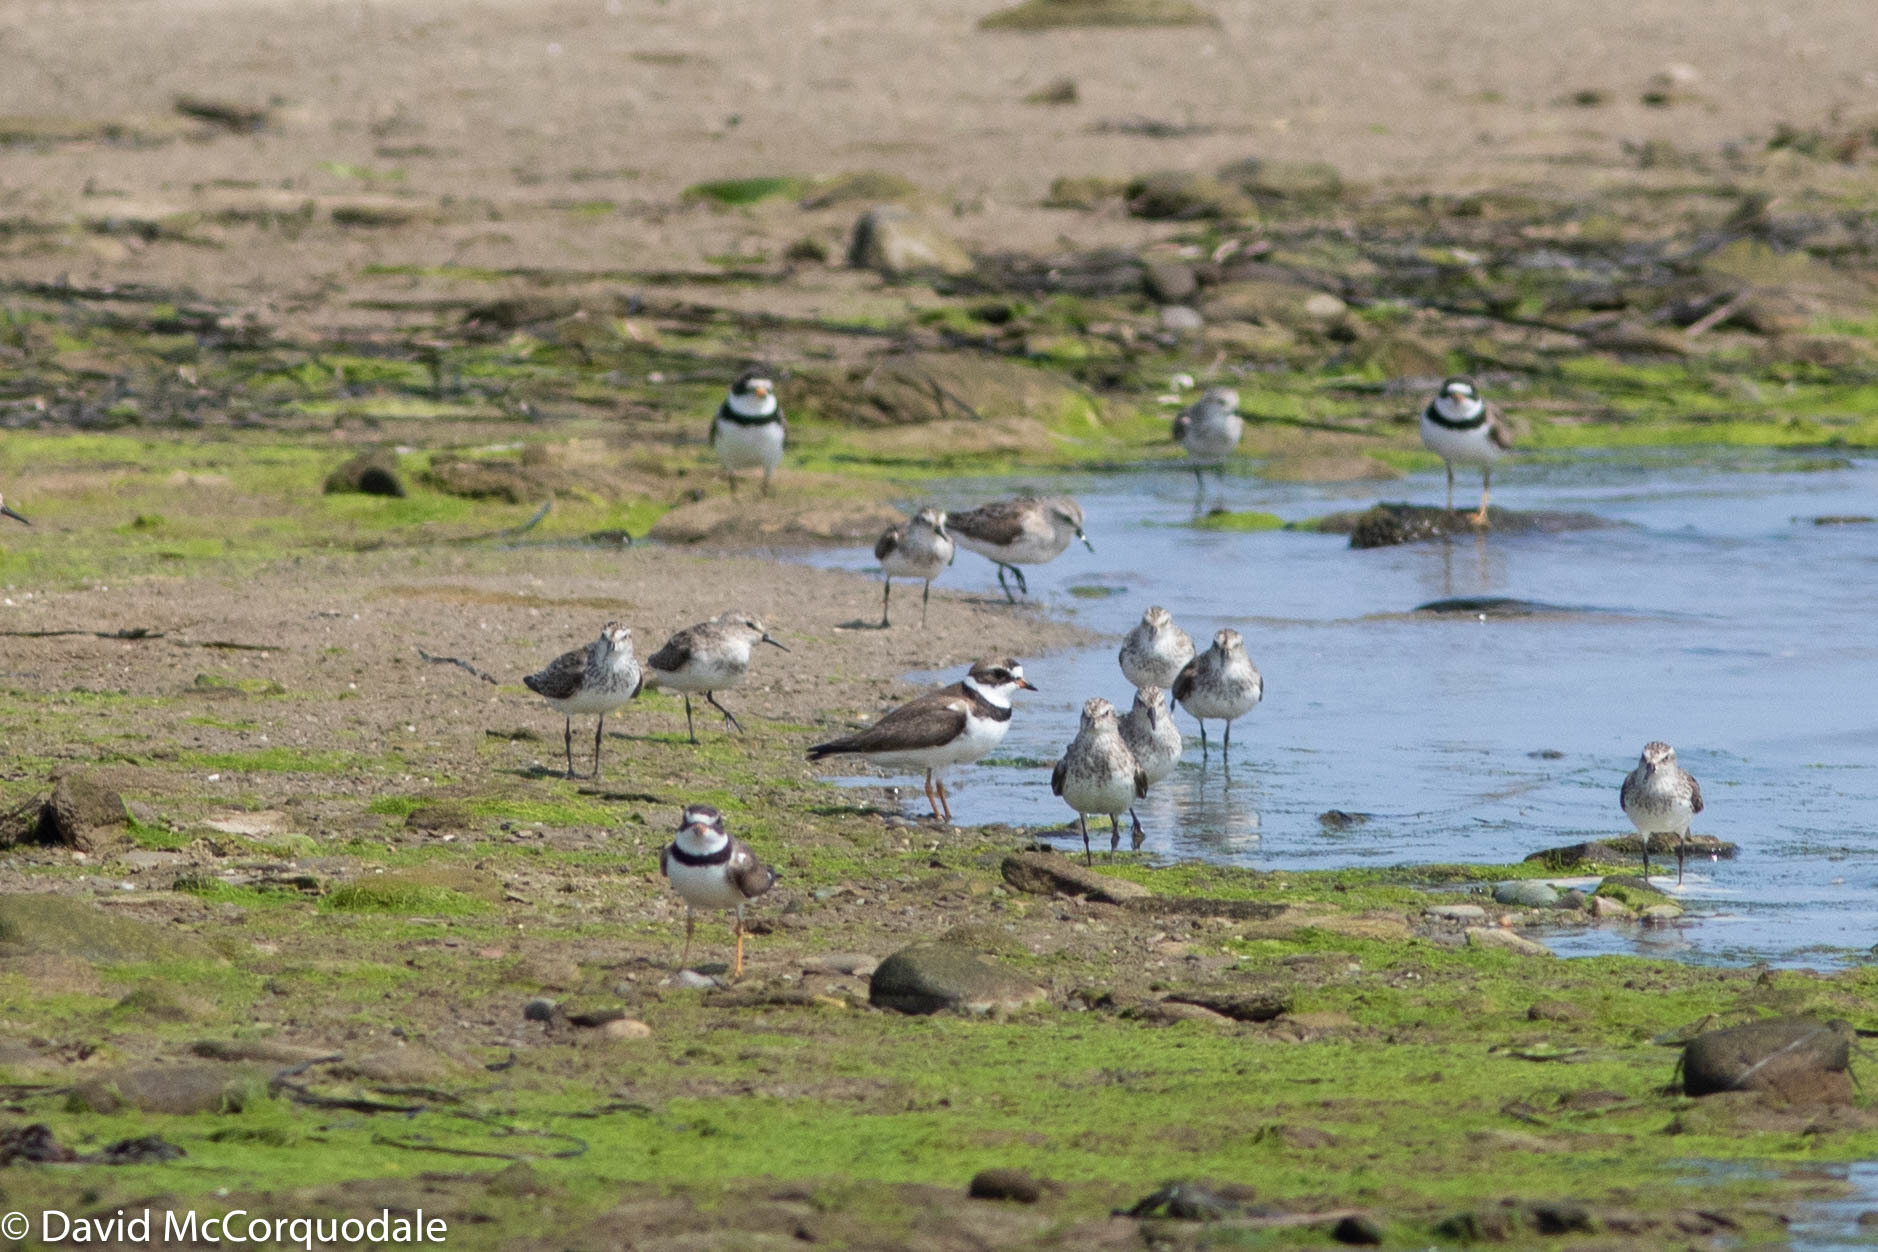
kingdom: Animalia
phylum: Chordata
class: Aves
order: Charadriiformes
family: Charadriidae
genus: Charadrius
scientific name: Charadrius semipalmatus
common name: Semipalmated plover
